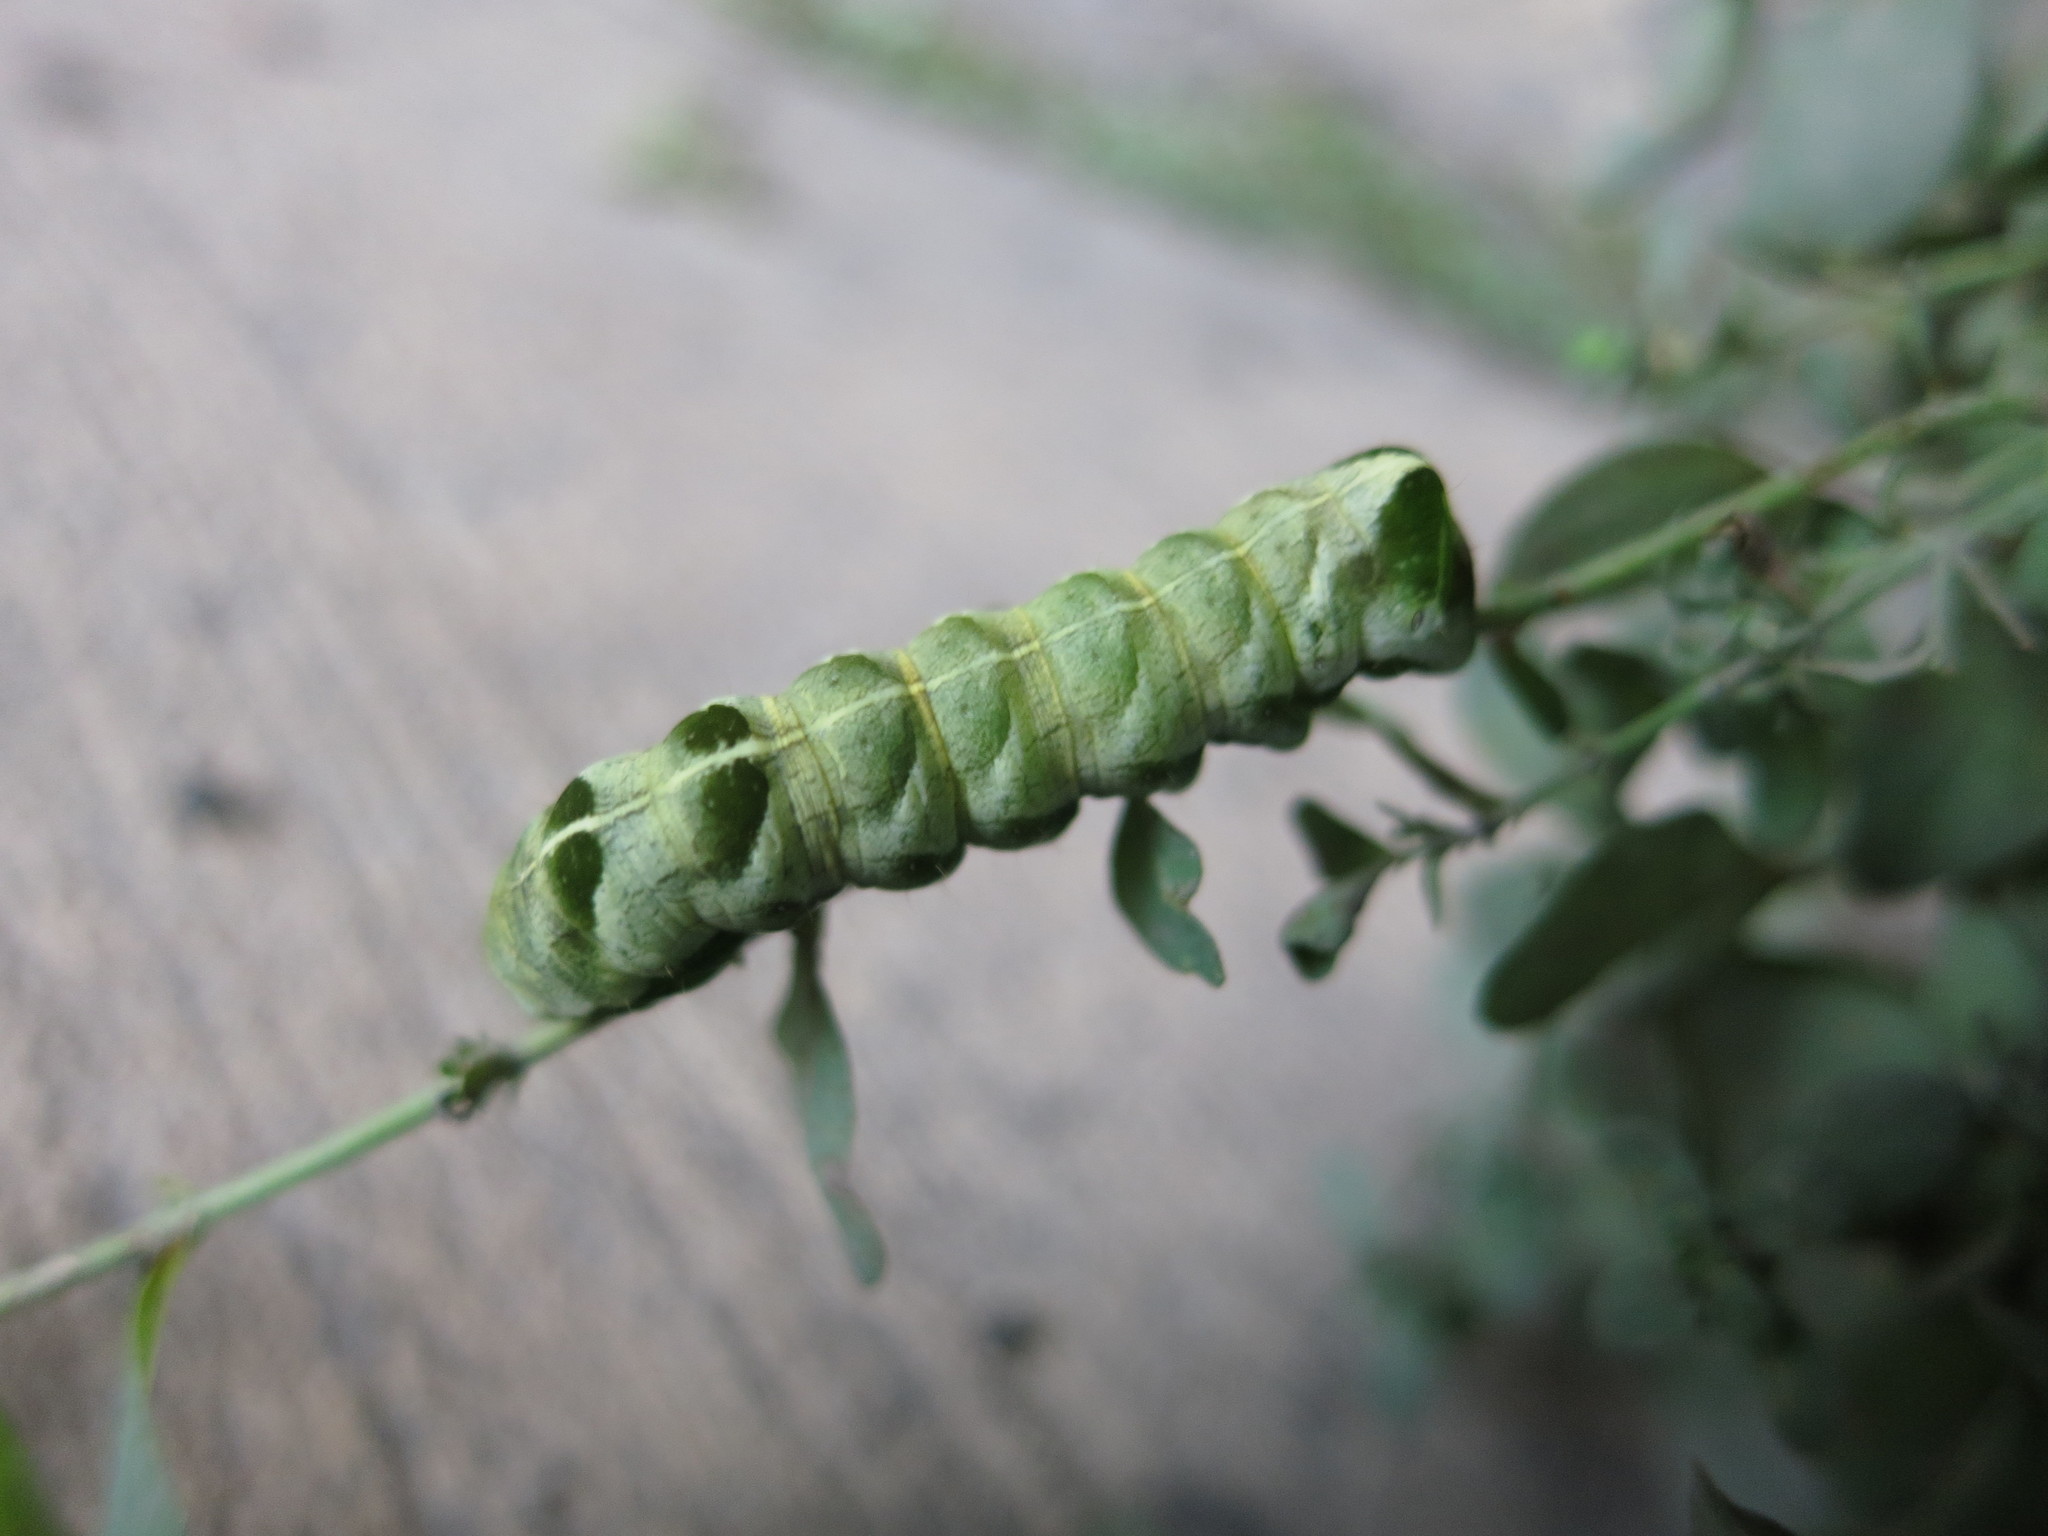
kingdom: Animalia
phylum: Arthropoda
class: Insecta
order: Lepidoptera
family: Noctuidae
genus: Melanchra
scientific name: Melanchra adjuncta
